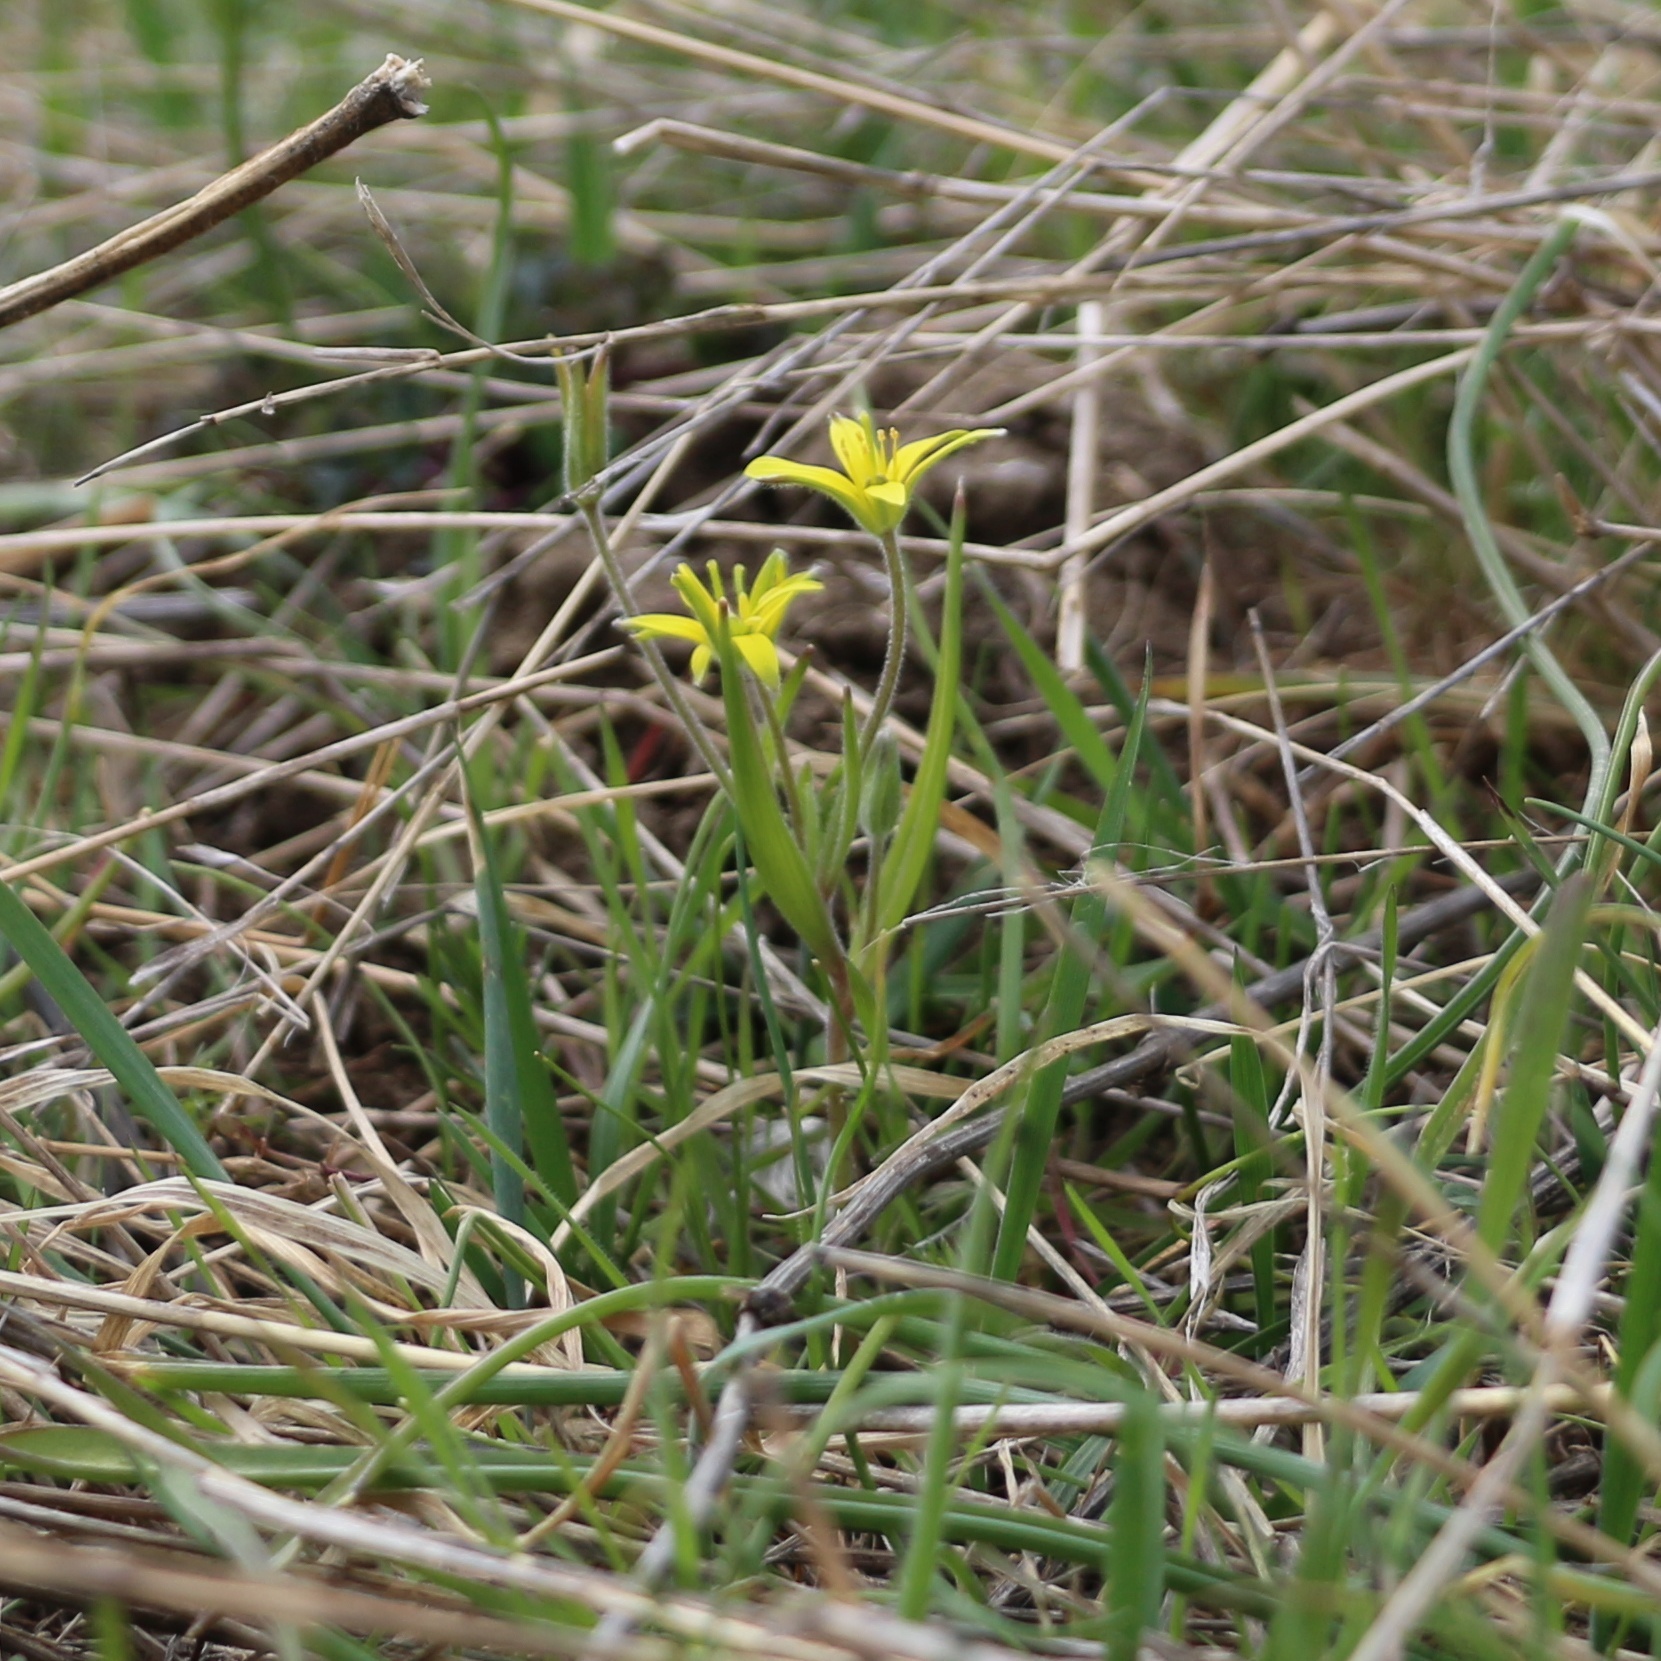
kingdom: Plantae
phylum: Tracheophyta
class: Liliopsida
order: Liliales
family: Liliaceae
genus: Gagea
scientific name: Gagea villosa
